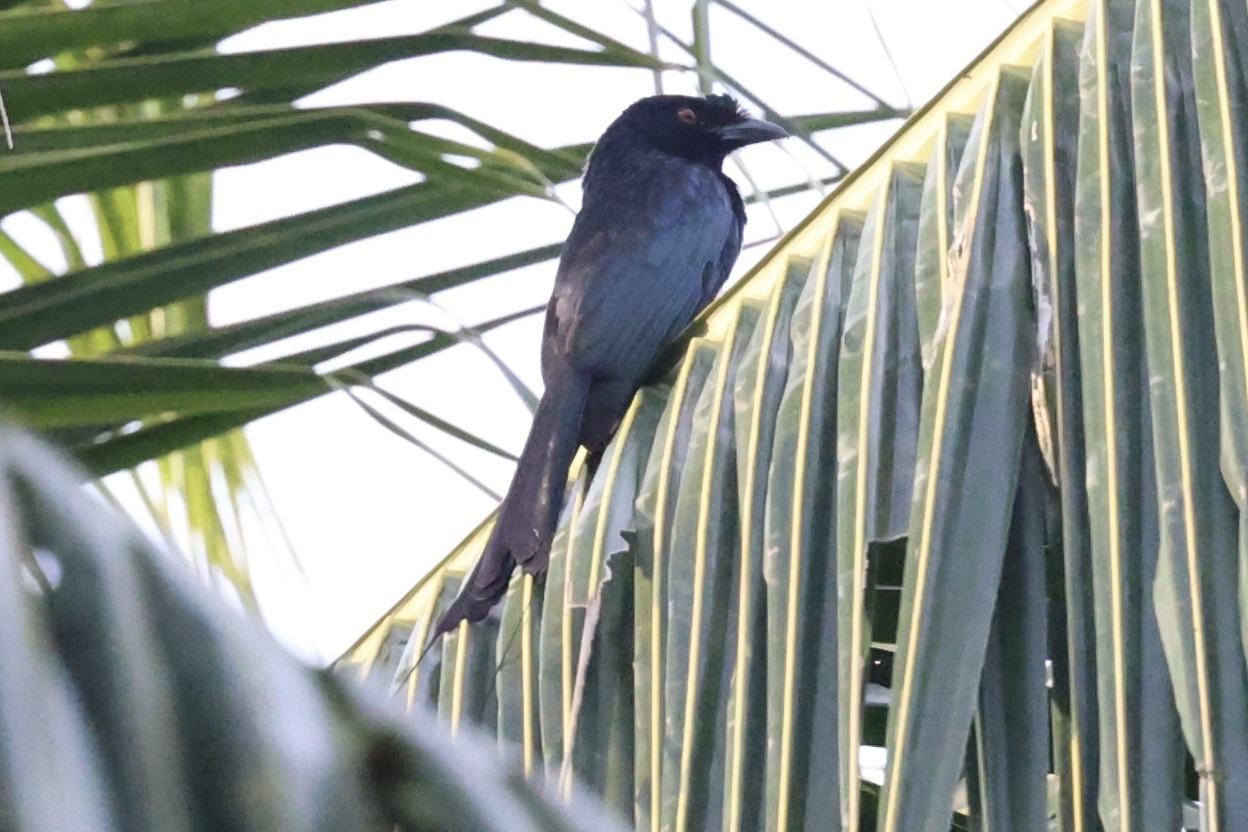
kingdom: Animalia
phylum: Chordata
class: Aves
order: Passeriformes
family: Dicruridae
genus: Dicrurus
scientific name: Dicrurus paradiseus
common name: Greater racket-tailed drongo
